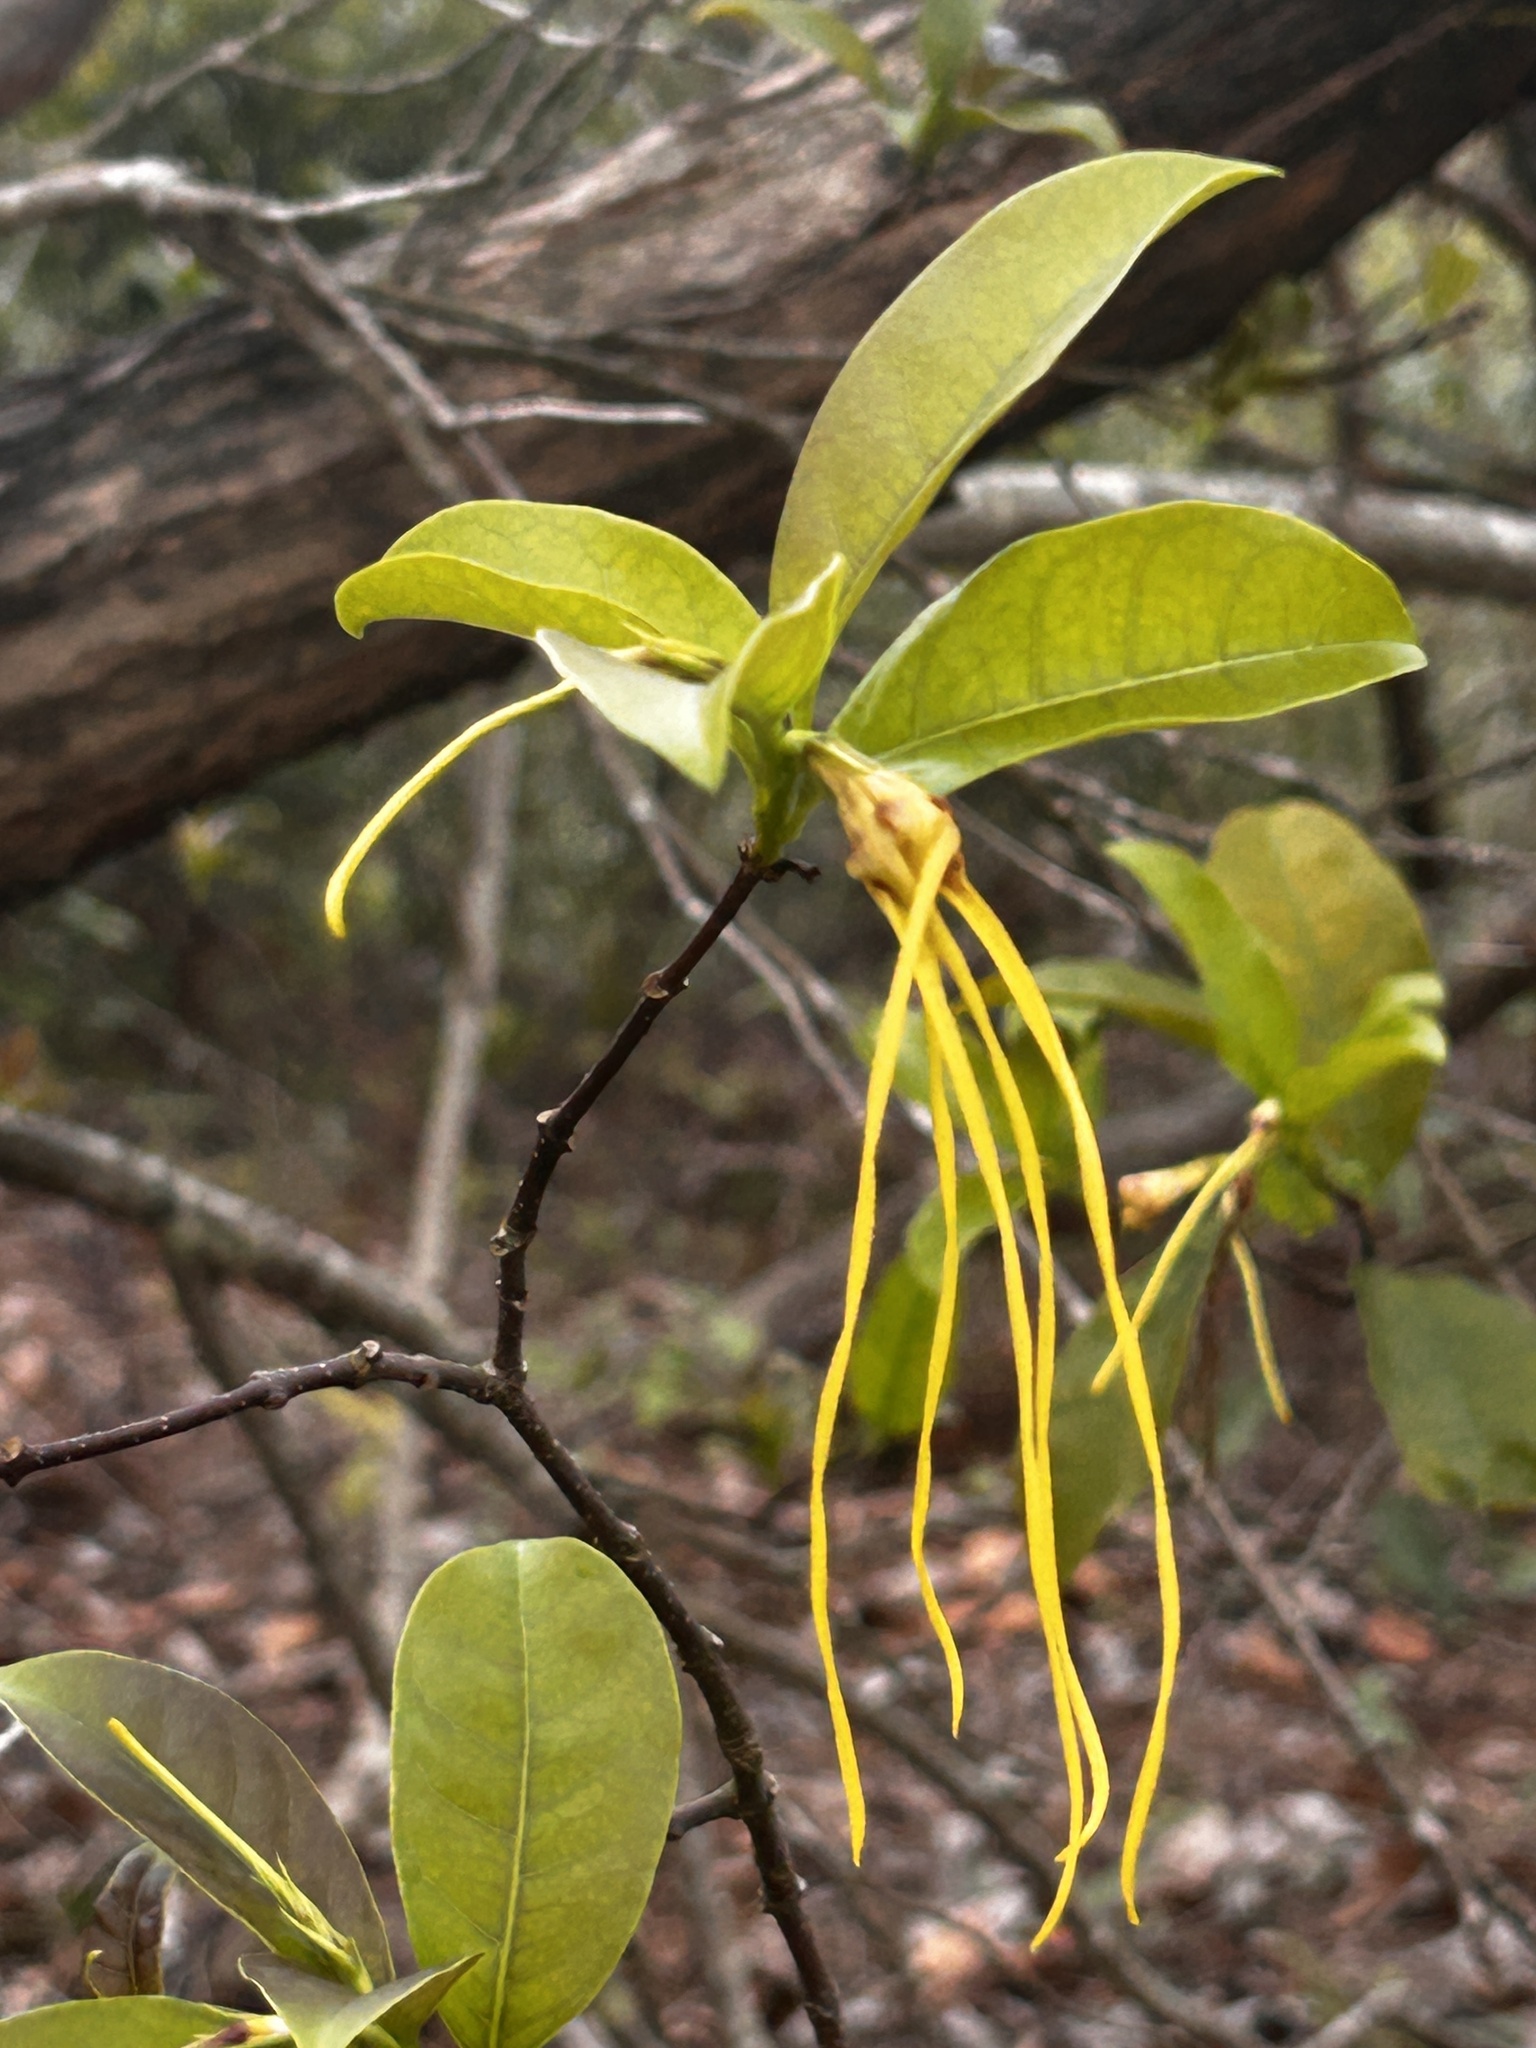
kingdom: Plantae
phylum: Tracheophyta
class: Magnoliopsida
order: Gentianales
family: Apocynaceae
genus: Strophanthus
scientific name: Strophanthus divaricatus
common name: Goat-horns
